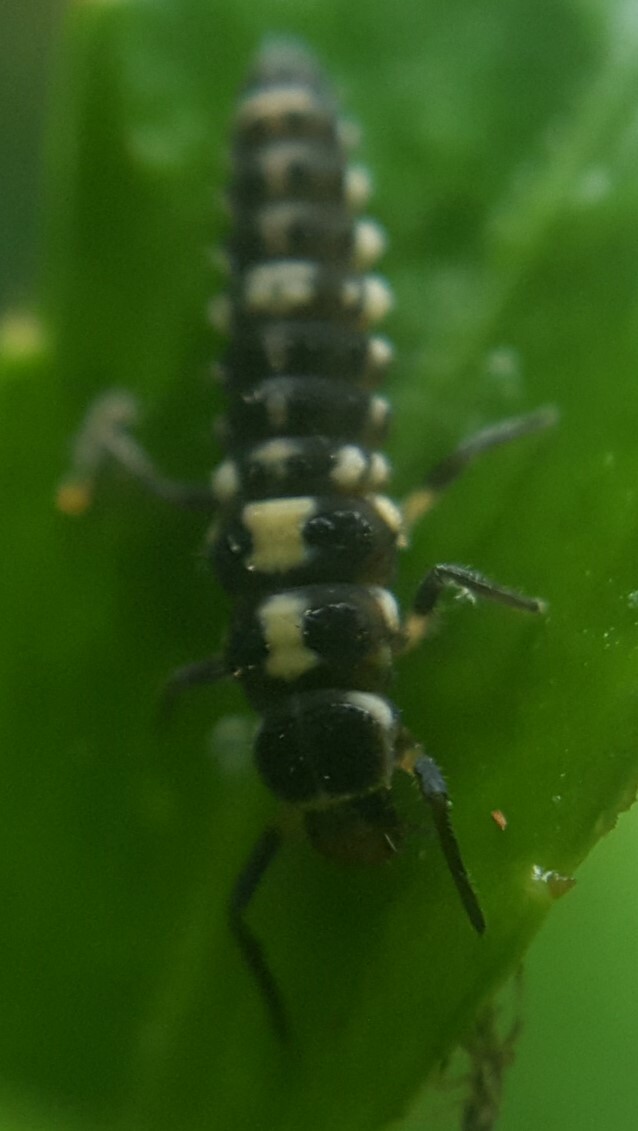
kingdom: Animalia
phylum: Arthropoda
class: Insecta
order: Coleoptera
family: Coccinellidae
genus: Propylaea
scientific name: Propylaea quatuordecimpunctata
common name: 14-spotted ladybird beetle
